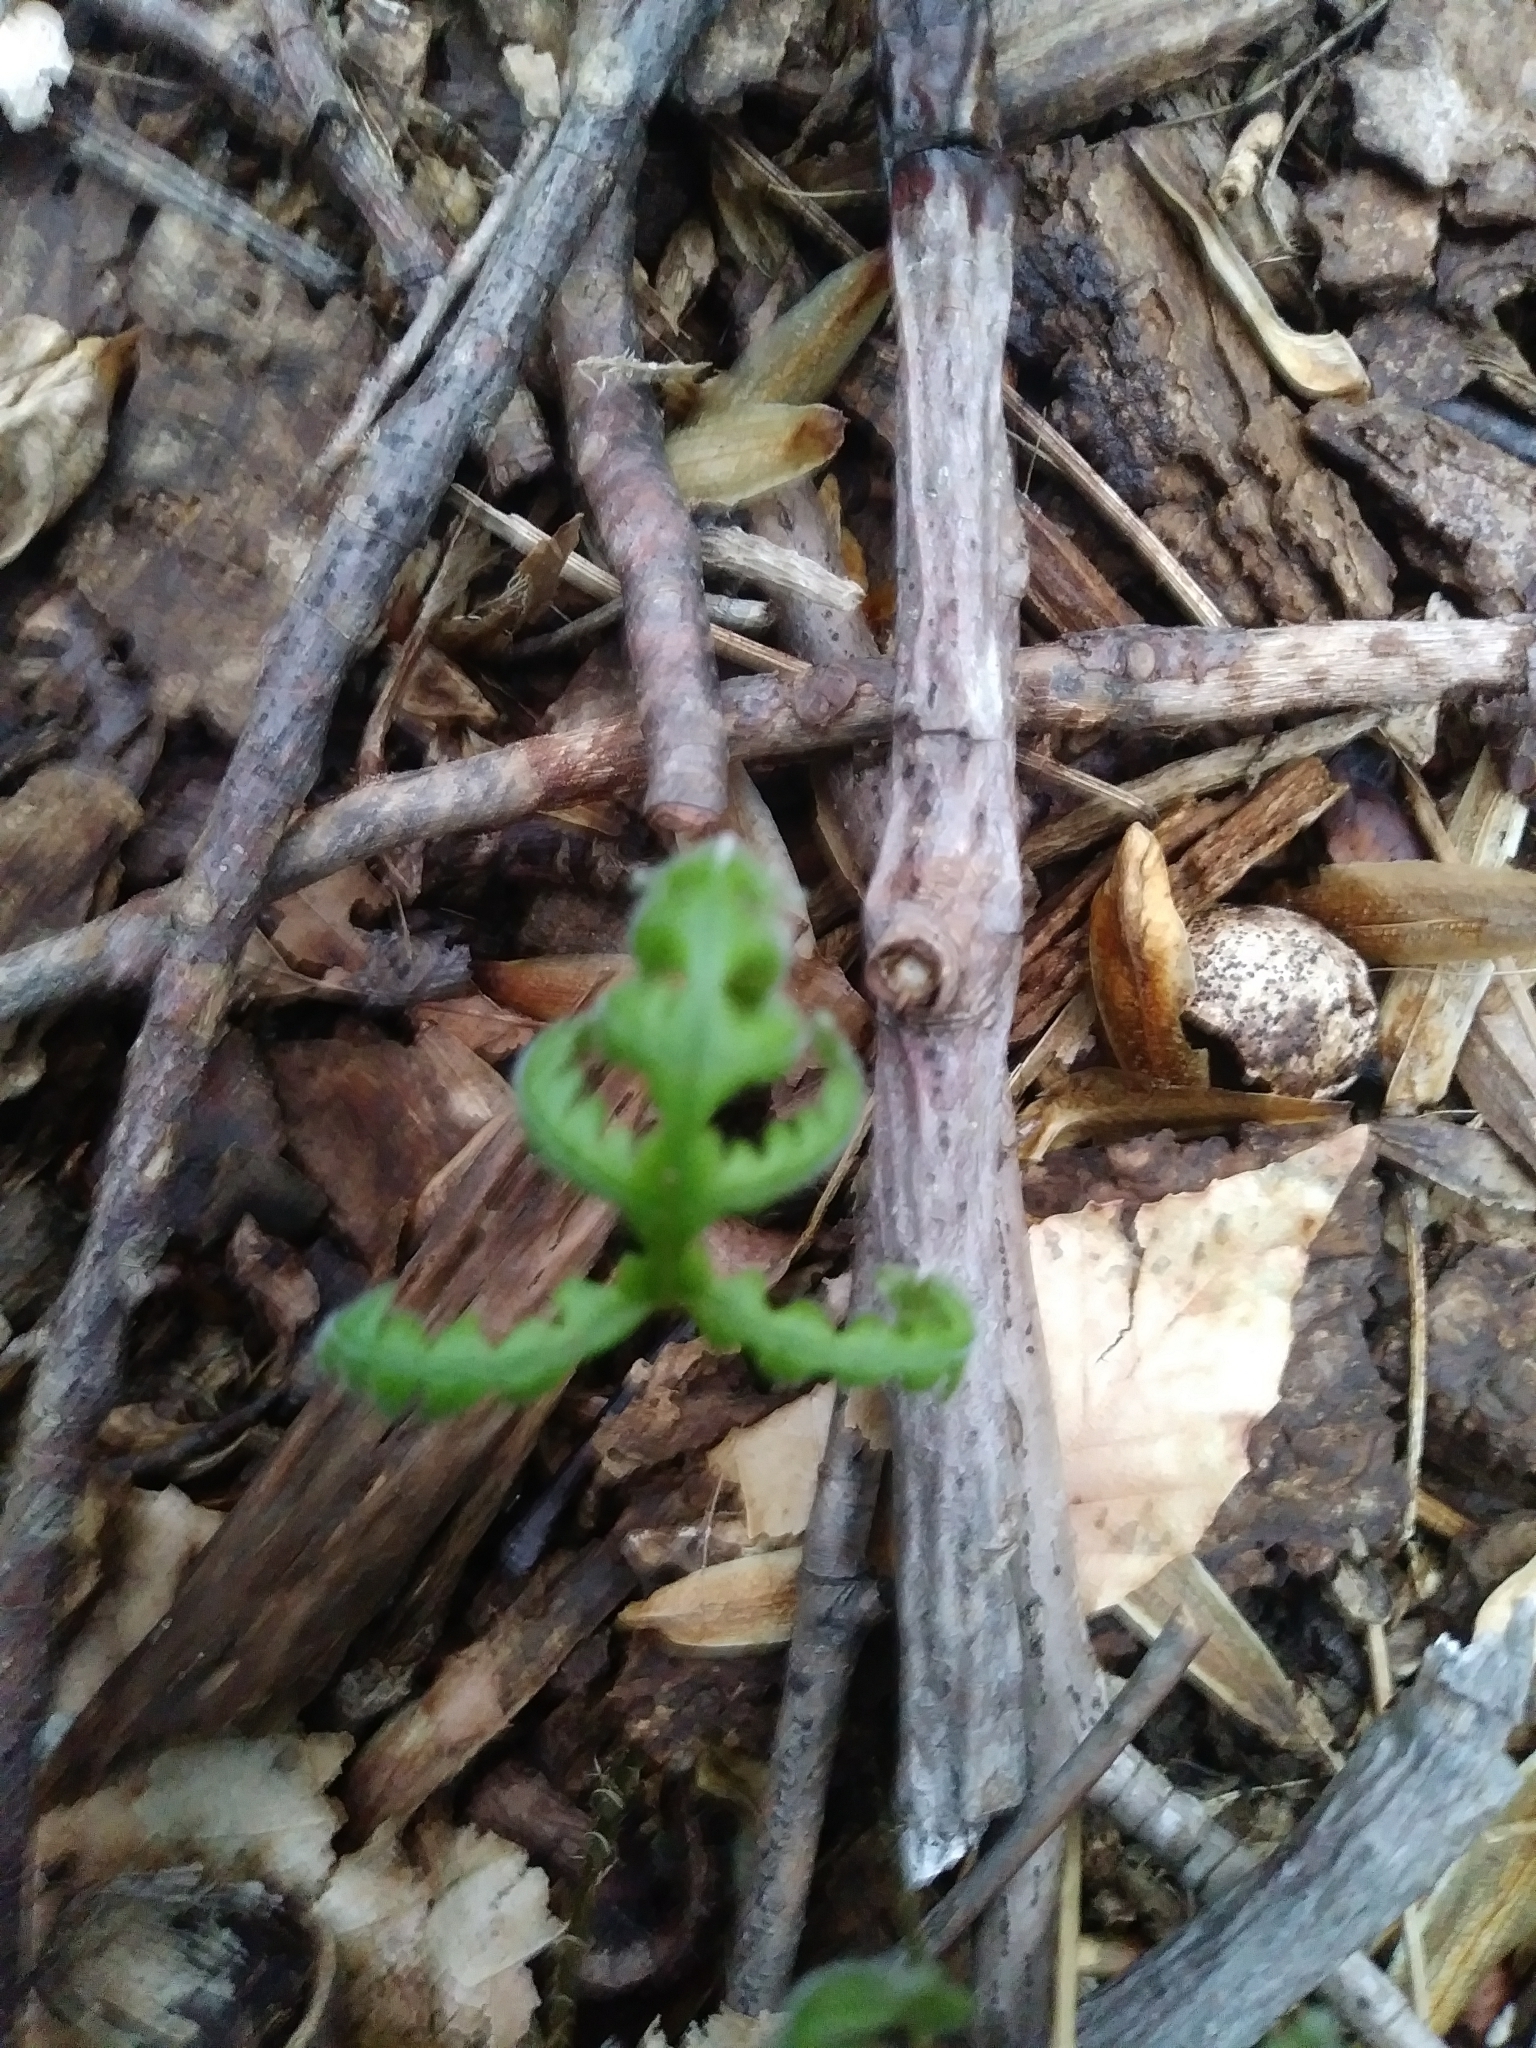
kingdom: Plantae
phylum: Tracheophyta
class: Polypodiopsida
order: Polypodiales
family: Thelypteridaceae
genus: Phegopteris
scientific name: Phegopteris hexagonoptera
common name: Broad beech fern
